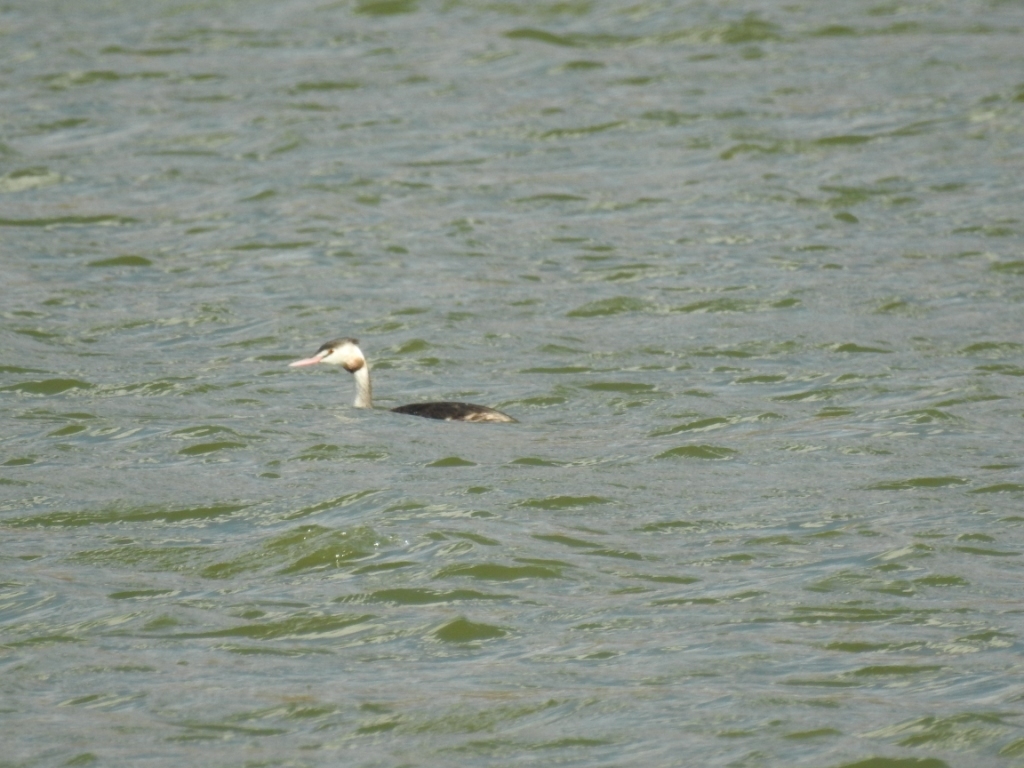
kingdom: Animalia
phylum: Chordata
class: Aves
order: Podicipediformes
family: Podicipedidae
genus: Podiceps
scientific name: Podiceps cristatus
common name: Great crested grebe
